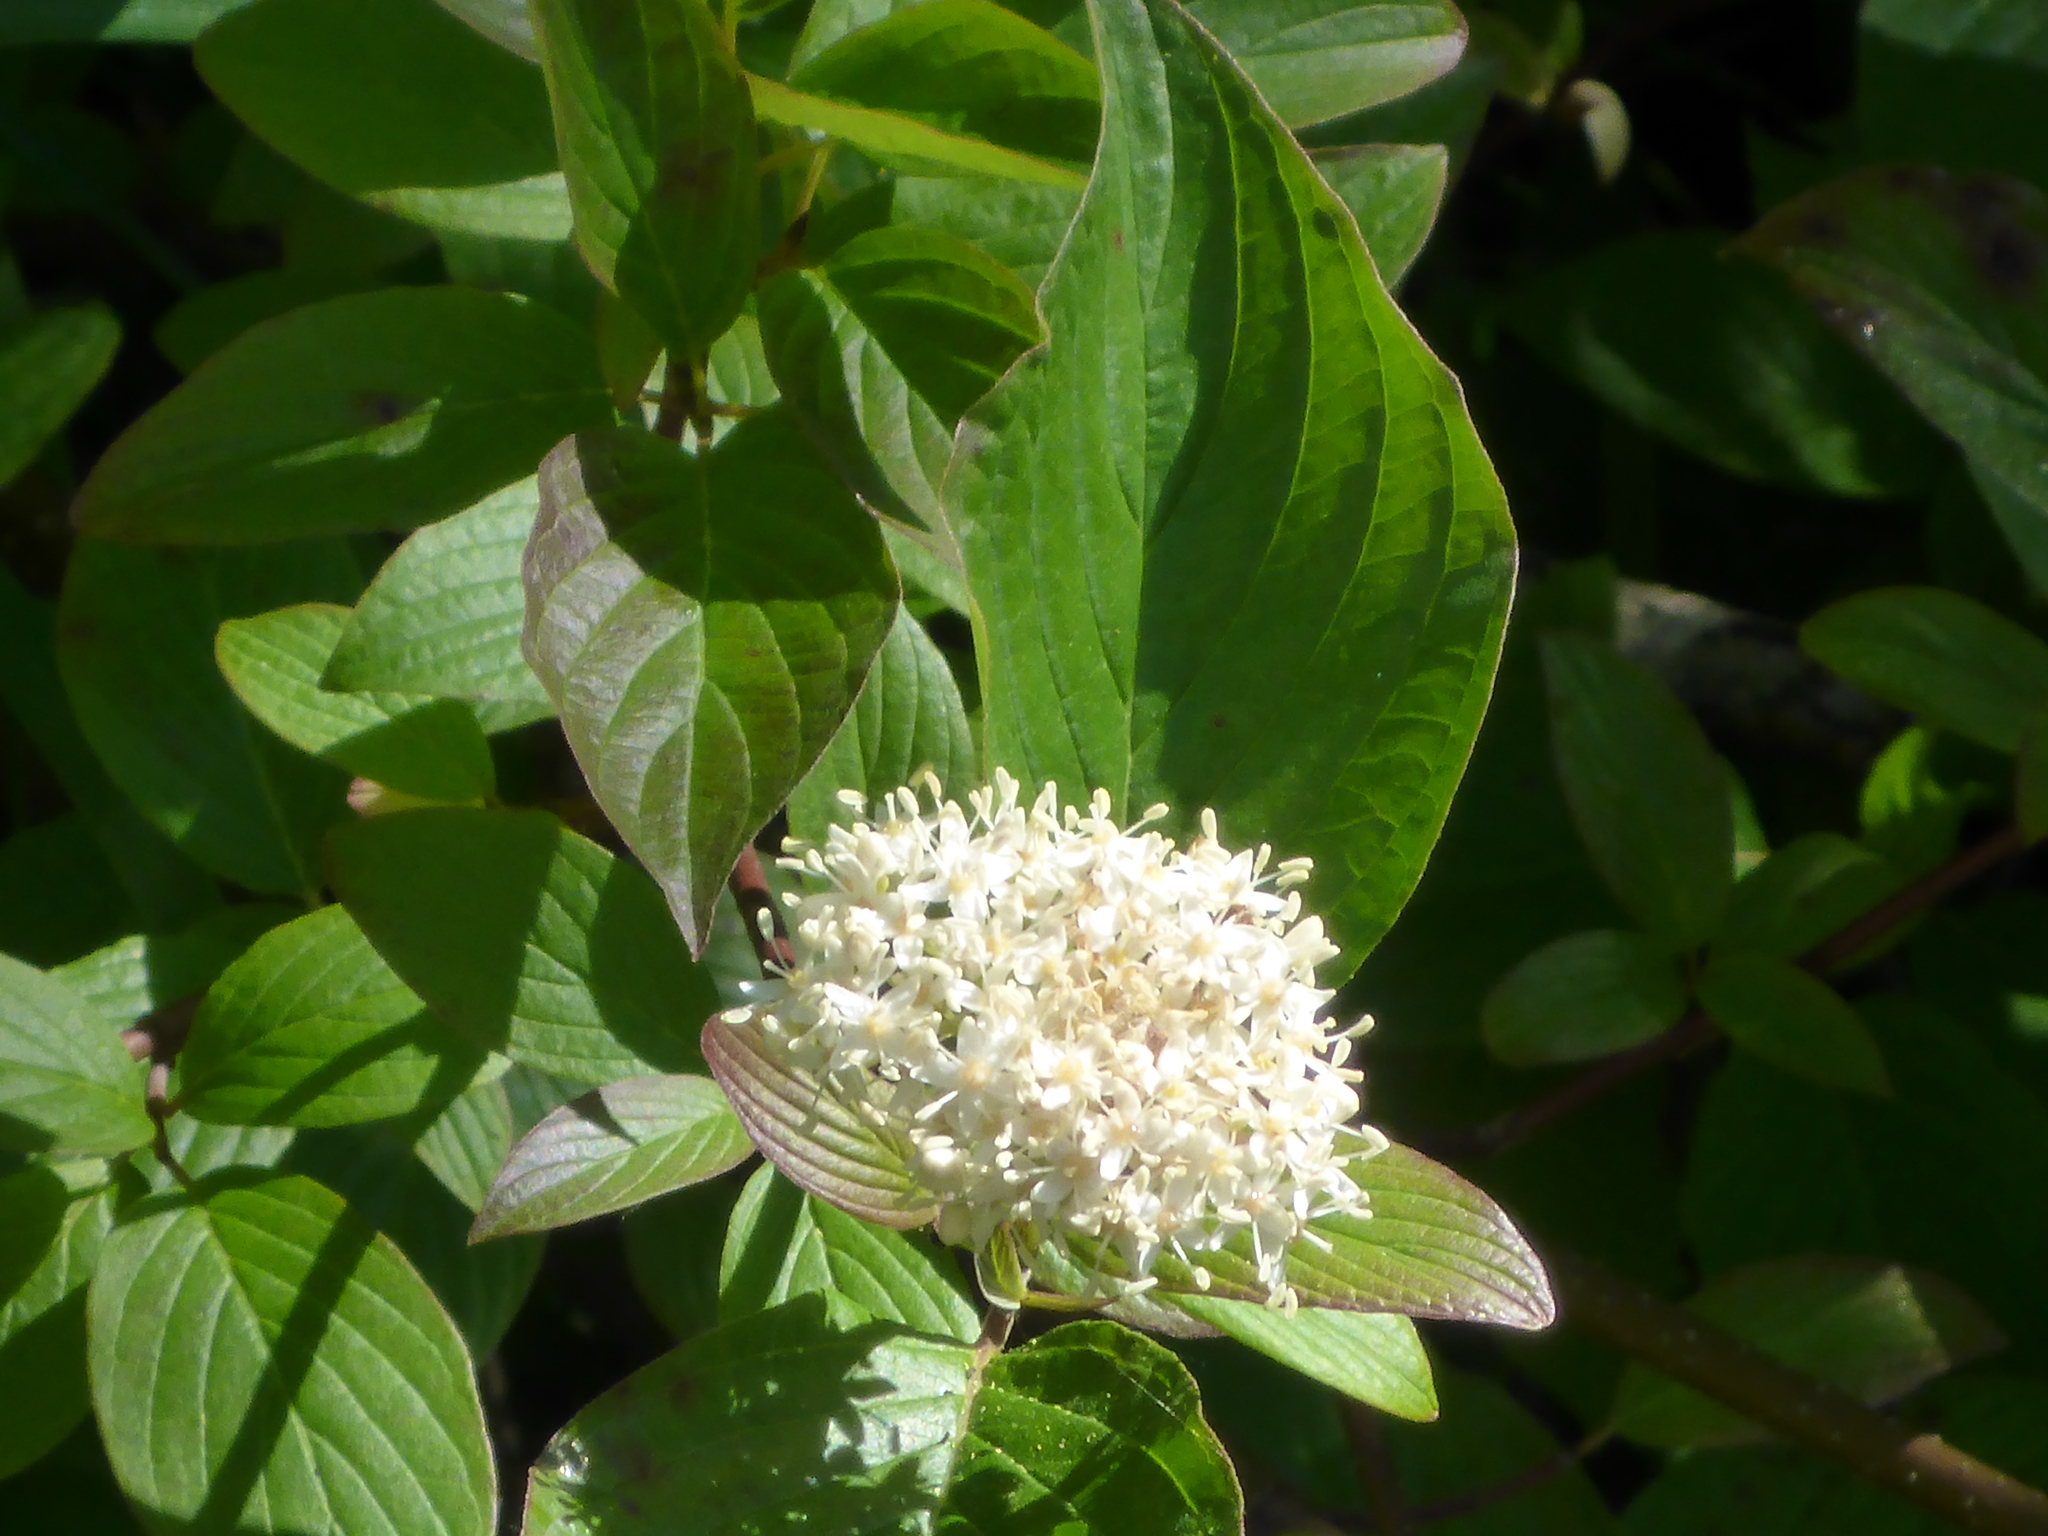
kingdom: Plantae
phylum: Tracheophyta
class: Magnoliopsida
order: Cornales
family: Cornaceae
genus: Cornus
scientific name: Cornus sericea
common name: Red-osier dogwood
